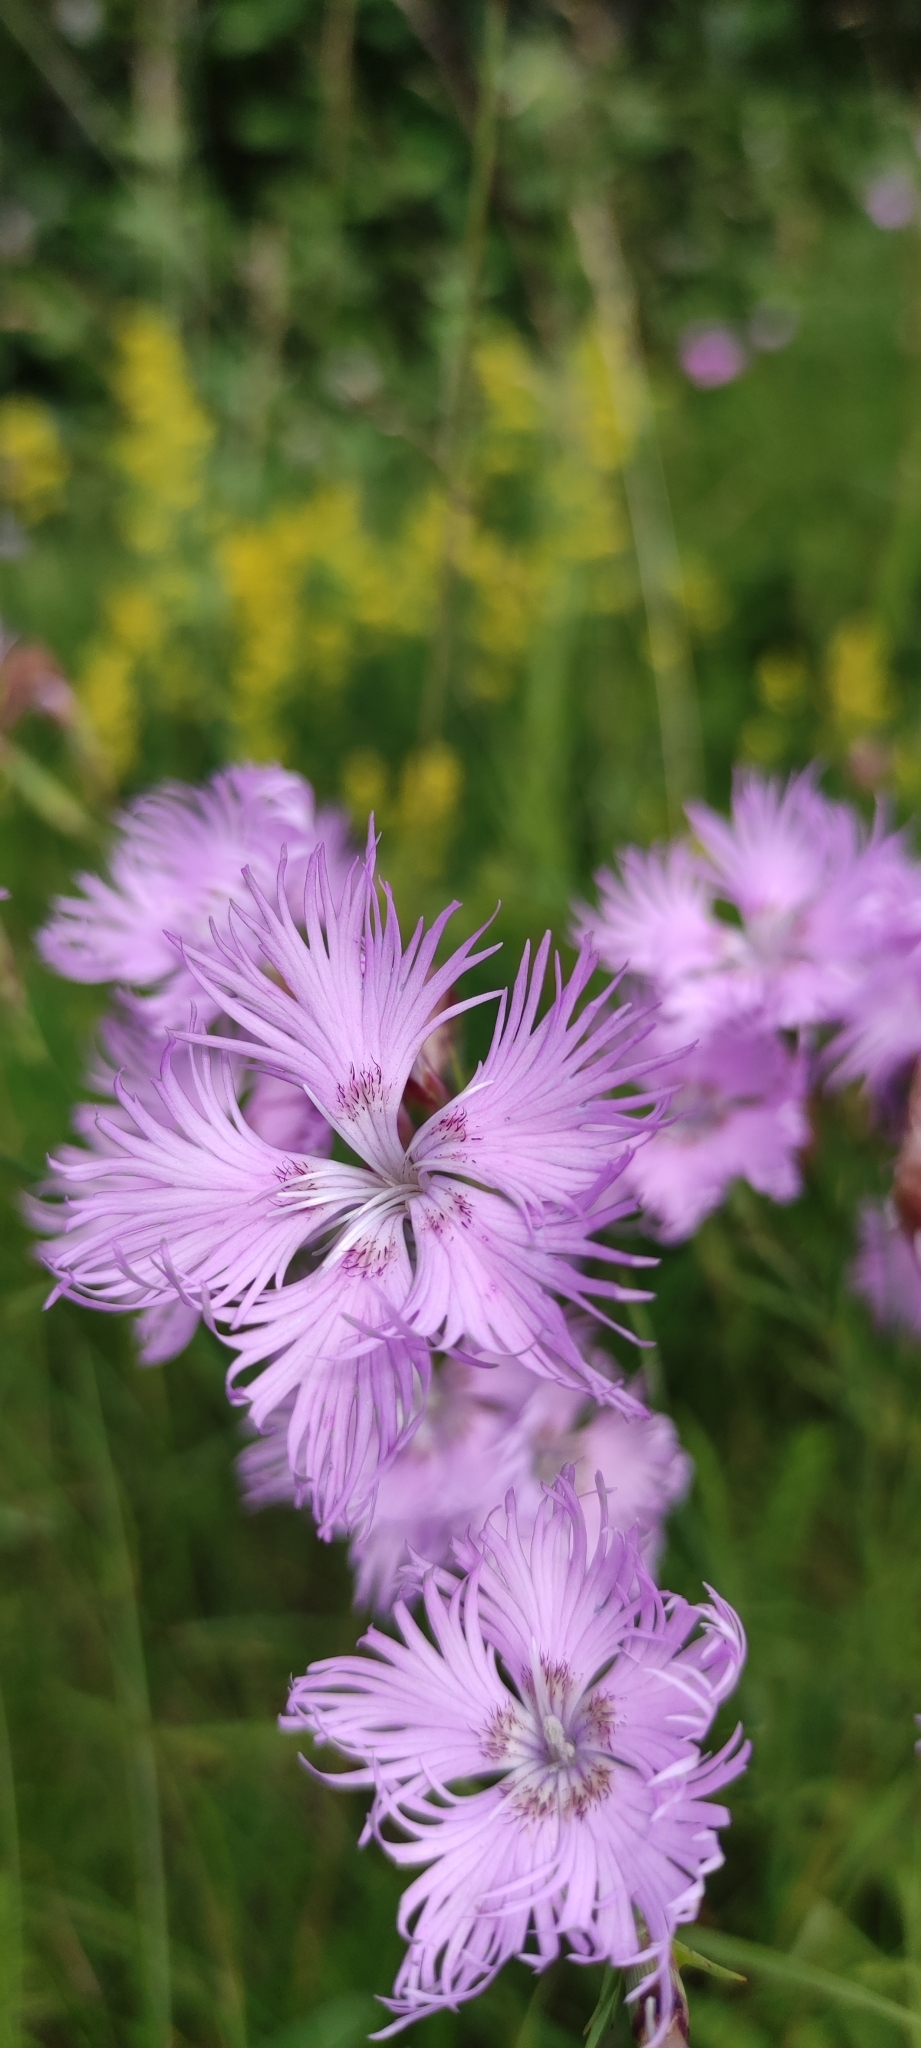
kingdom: Plantae
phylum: Tracheophyta
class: Magnoliopsida
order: Caryophyllales
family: Caryophyllaceae
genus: Dianthus
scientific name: Dianthus hyssopifolius
